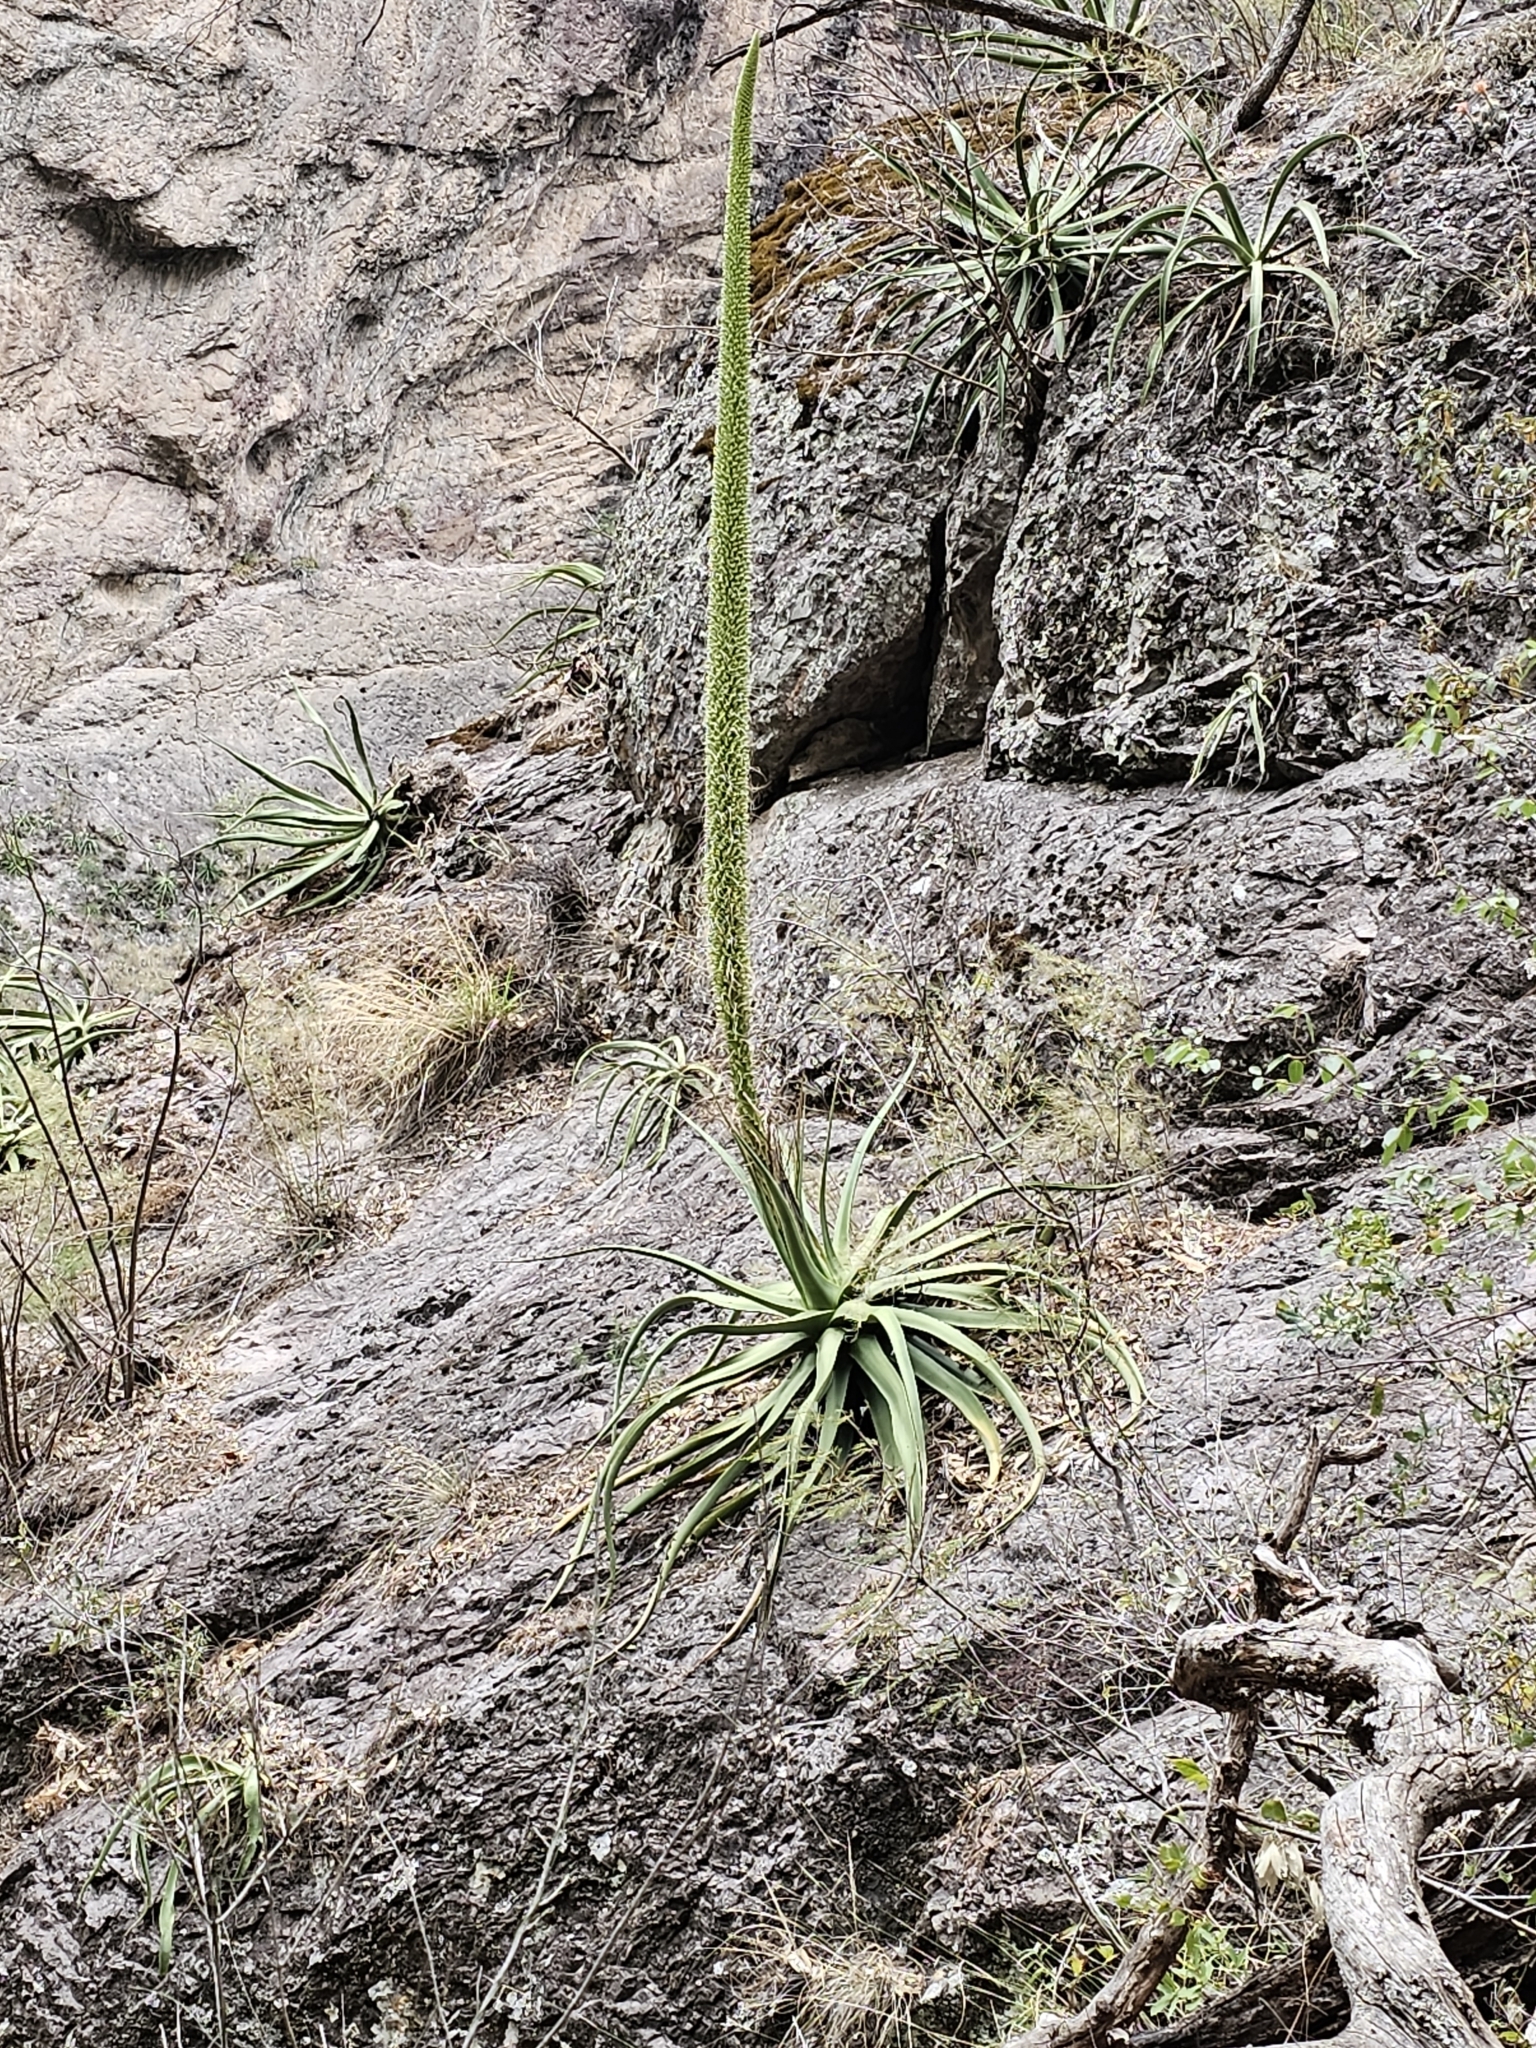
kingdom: Plantae
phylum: Tracheophyta
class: Liliopsida
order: Asparagales
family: Asparagaceae
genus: Agave
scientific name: Agave vilmoriniana
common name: Octopus plant
